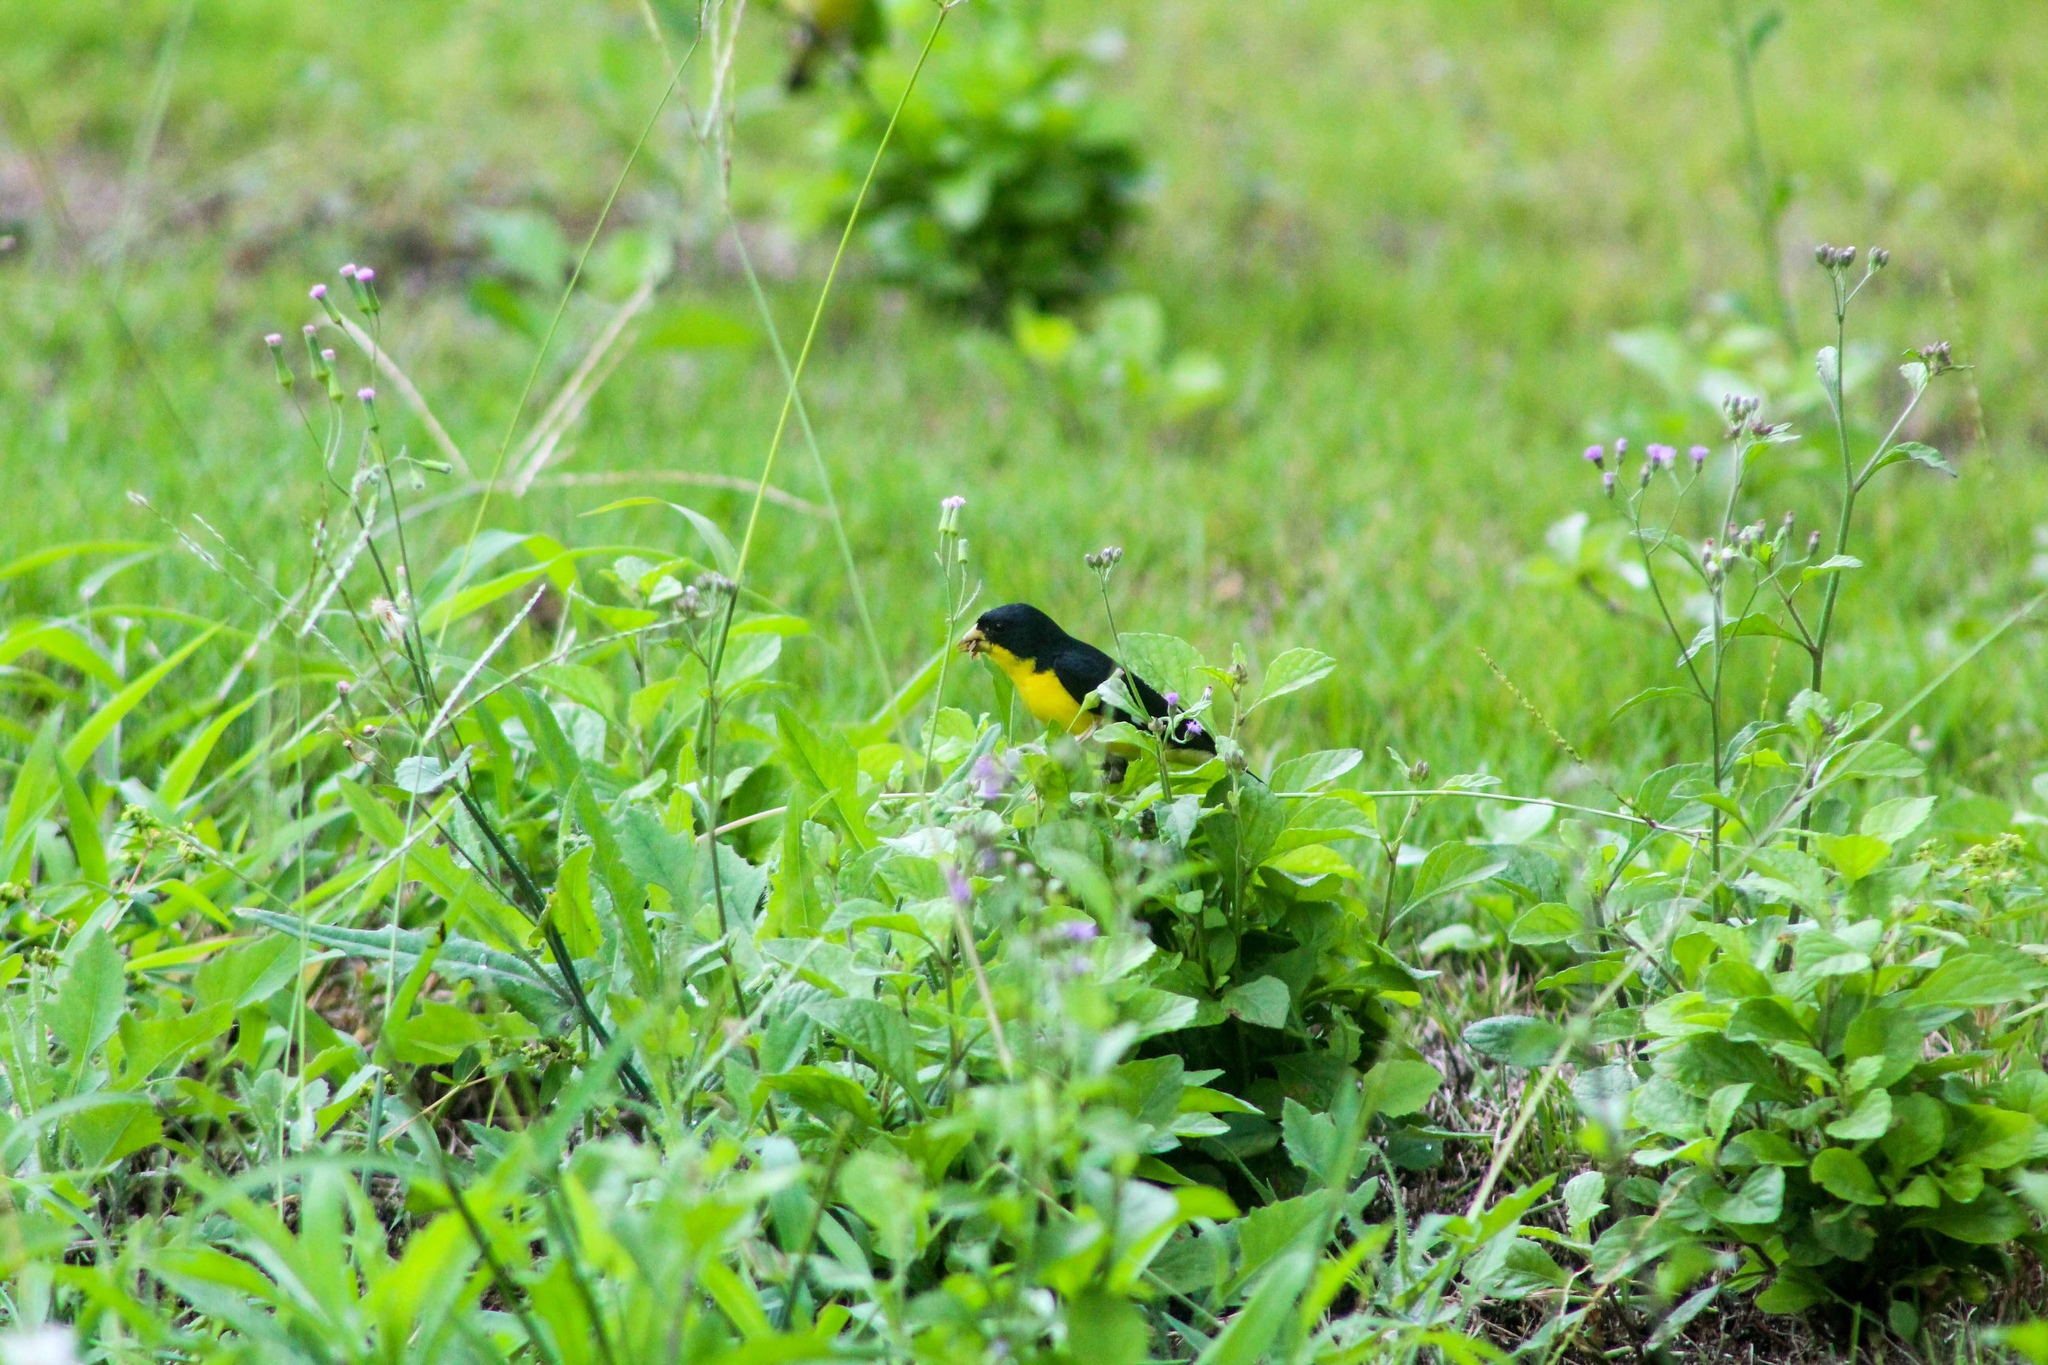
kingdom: Animalia
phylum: Chordata
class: Aves
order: Passeriformes
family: Fringillidae
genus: Spinus
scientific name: Spinus psaltria
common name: Lesser goldfinch
